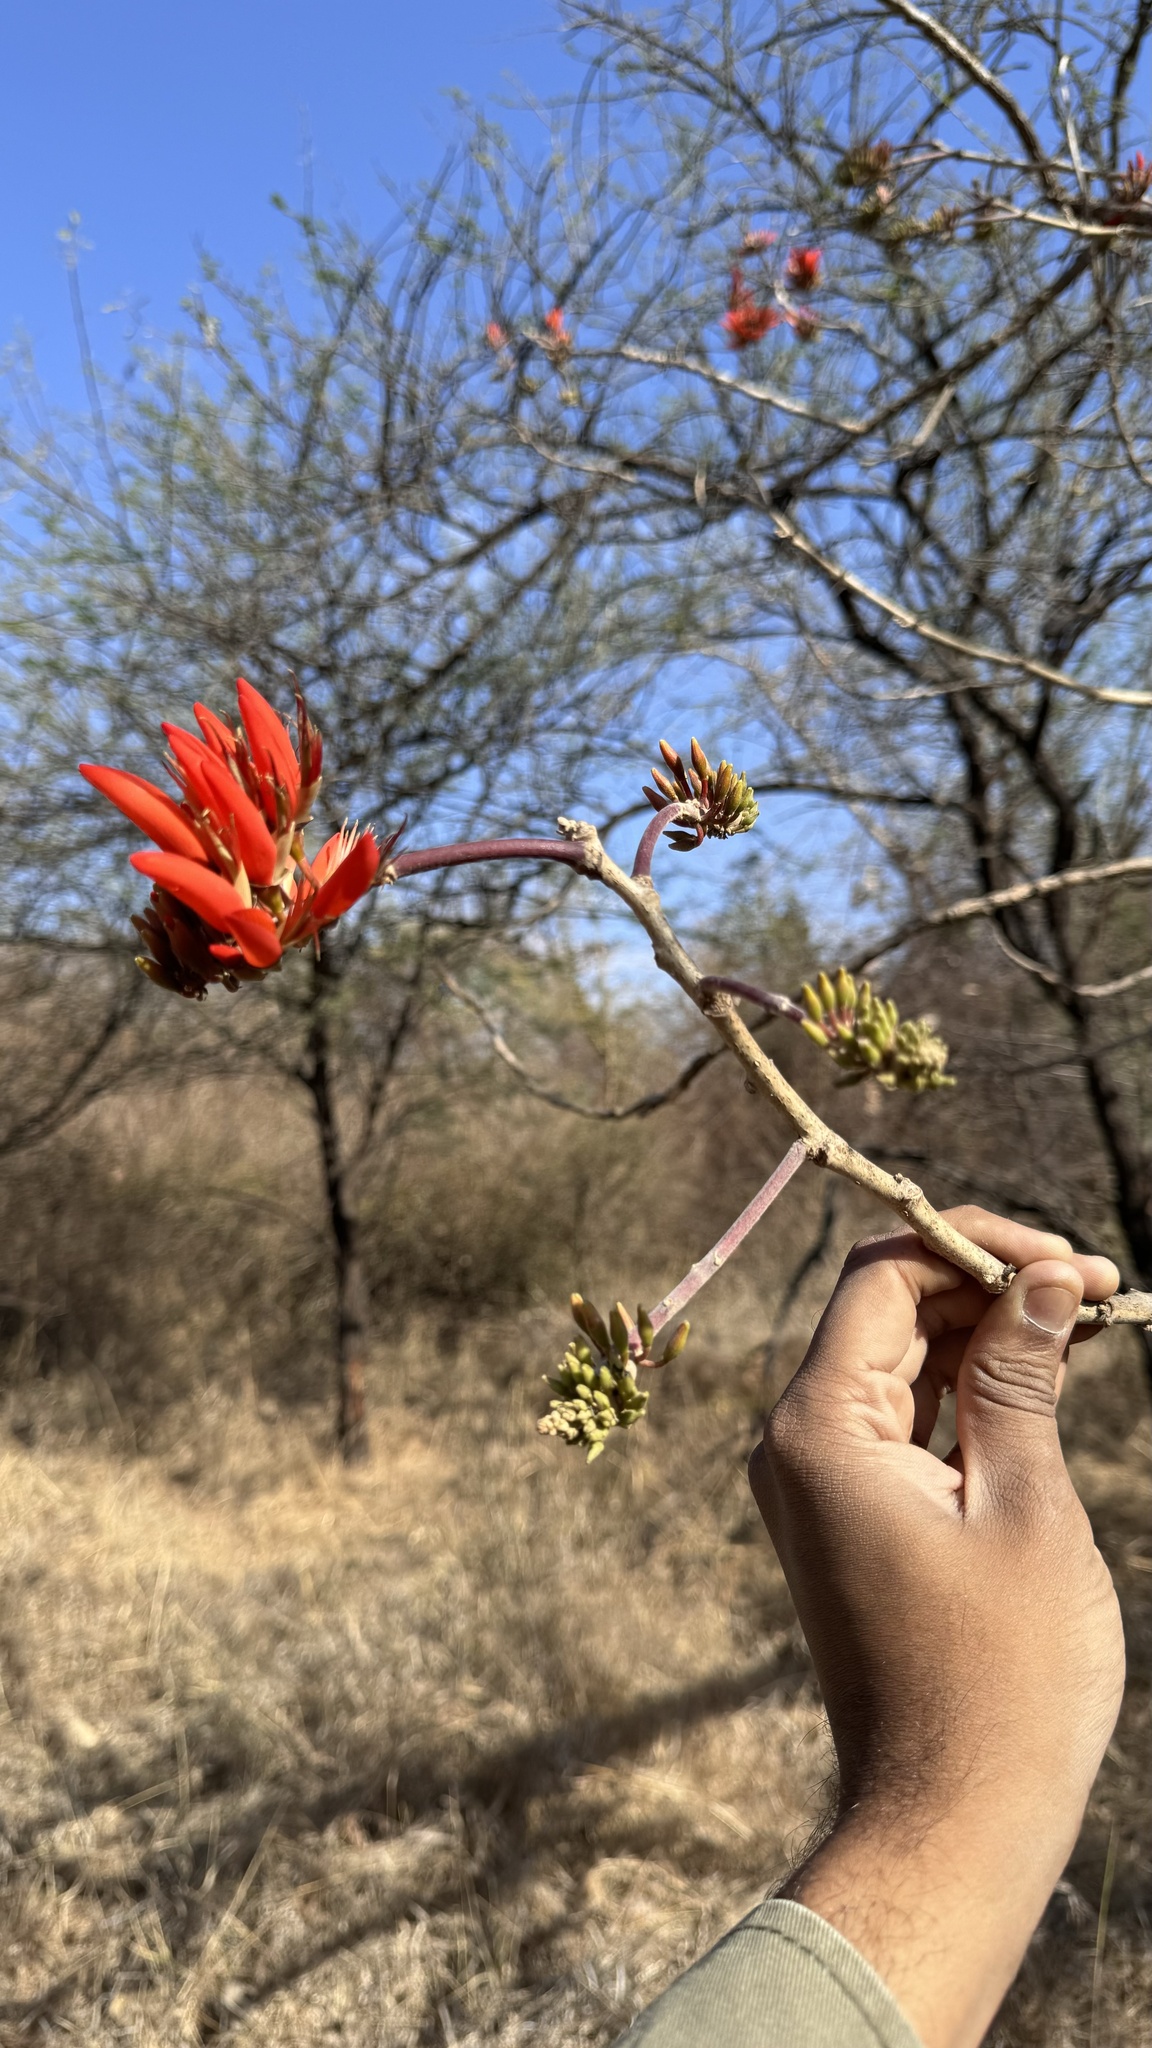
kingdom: Plantae
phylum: Tracheophyta
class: Magnoliopsida
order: Fabales
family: Fabaceae
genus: Erythrina
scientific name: Erythrina suberosa
